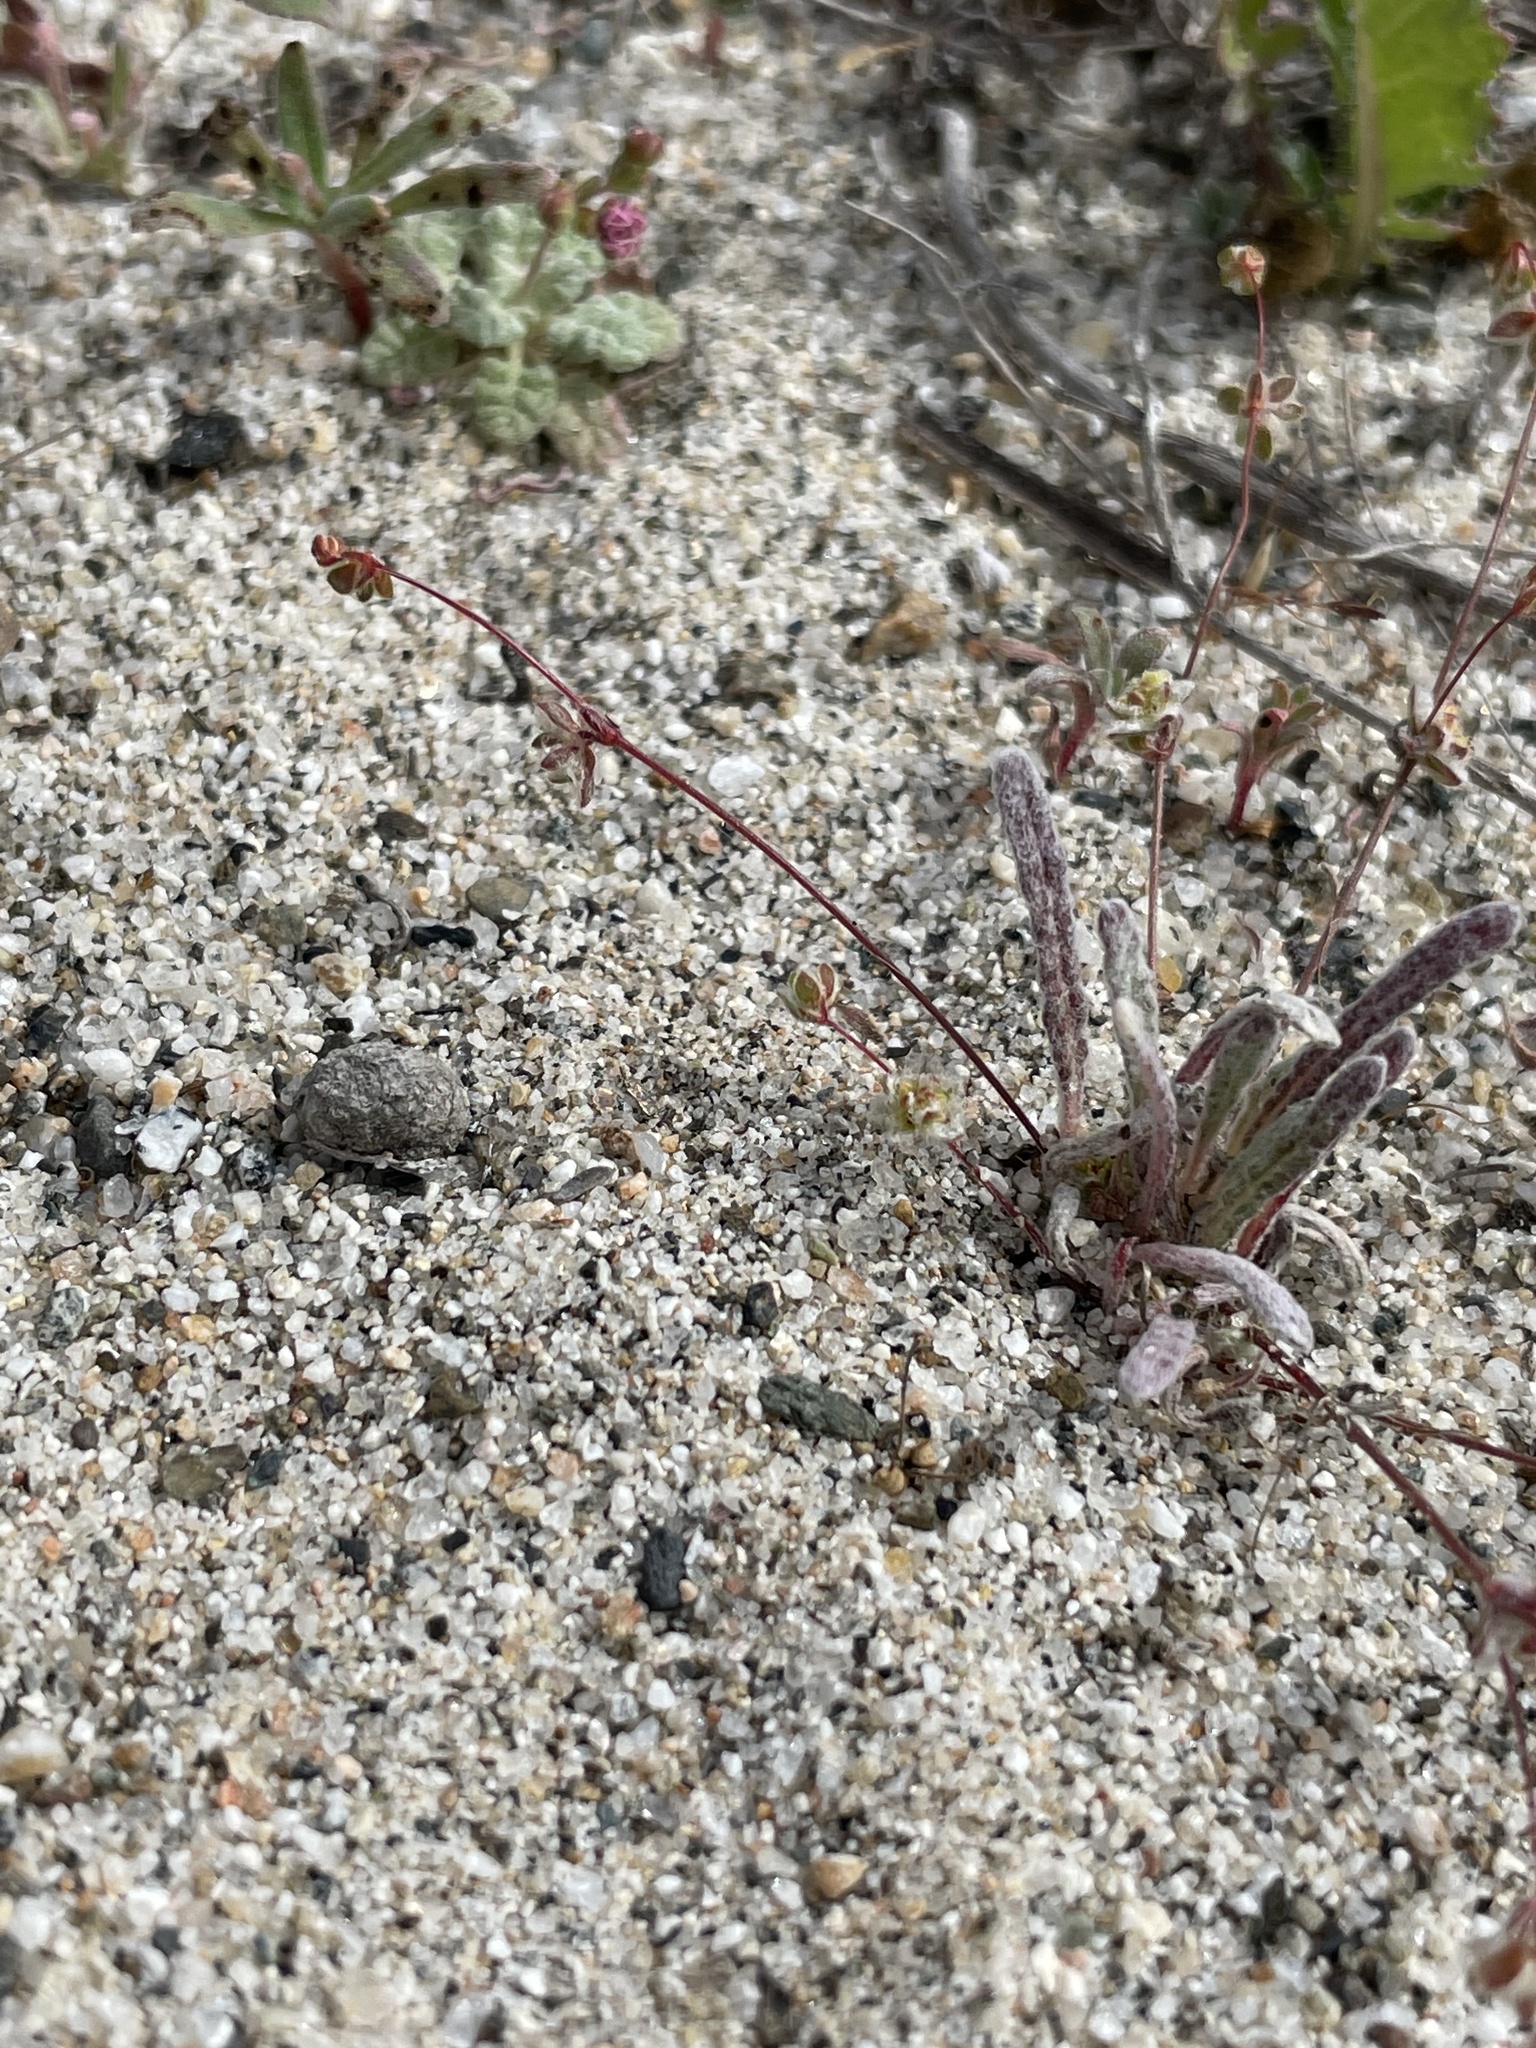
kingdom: Plantae
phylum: Tracheophyta
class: Magnoliopsida
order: Caryophyllales
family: Polygonaceae
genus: Nemacaulis
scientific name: Nemacaulis denudata
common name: Woolly-heads
